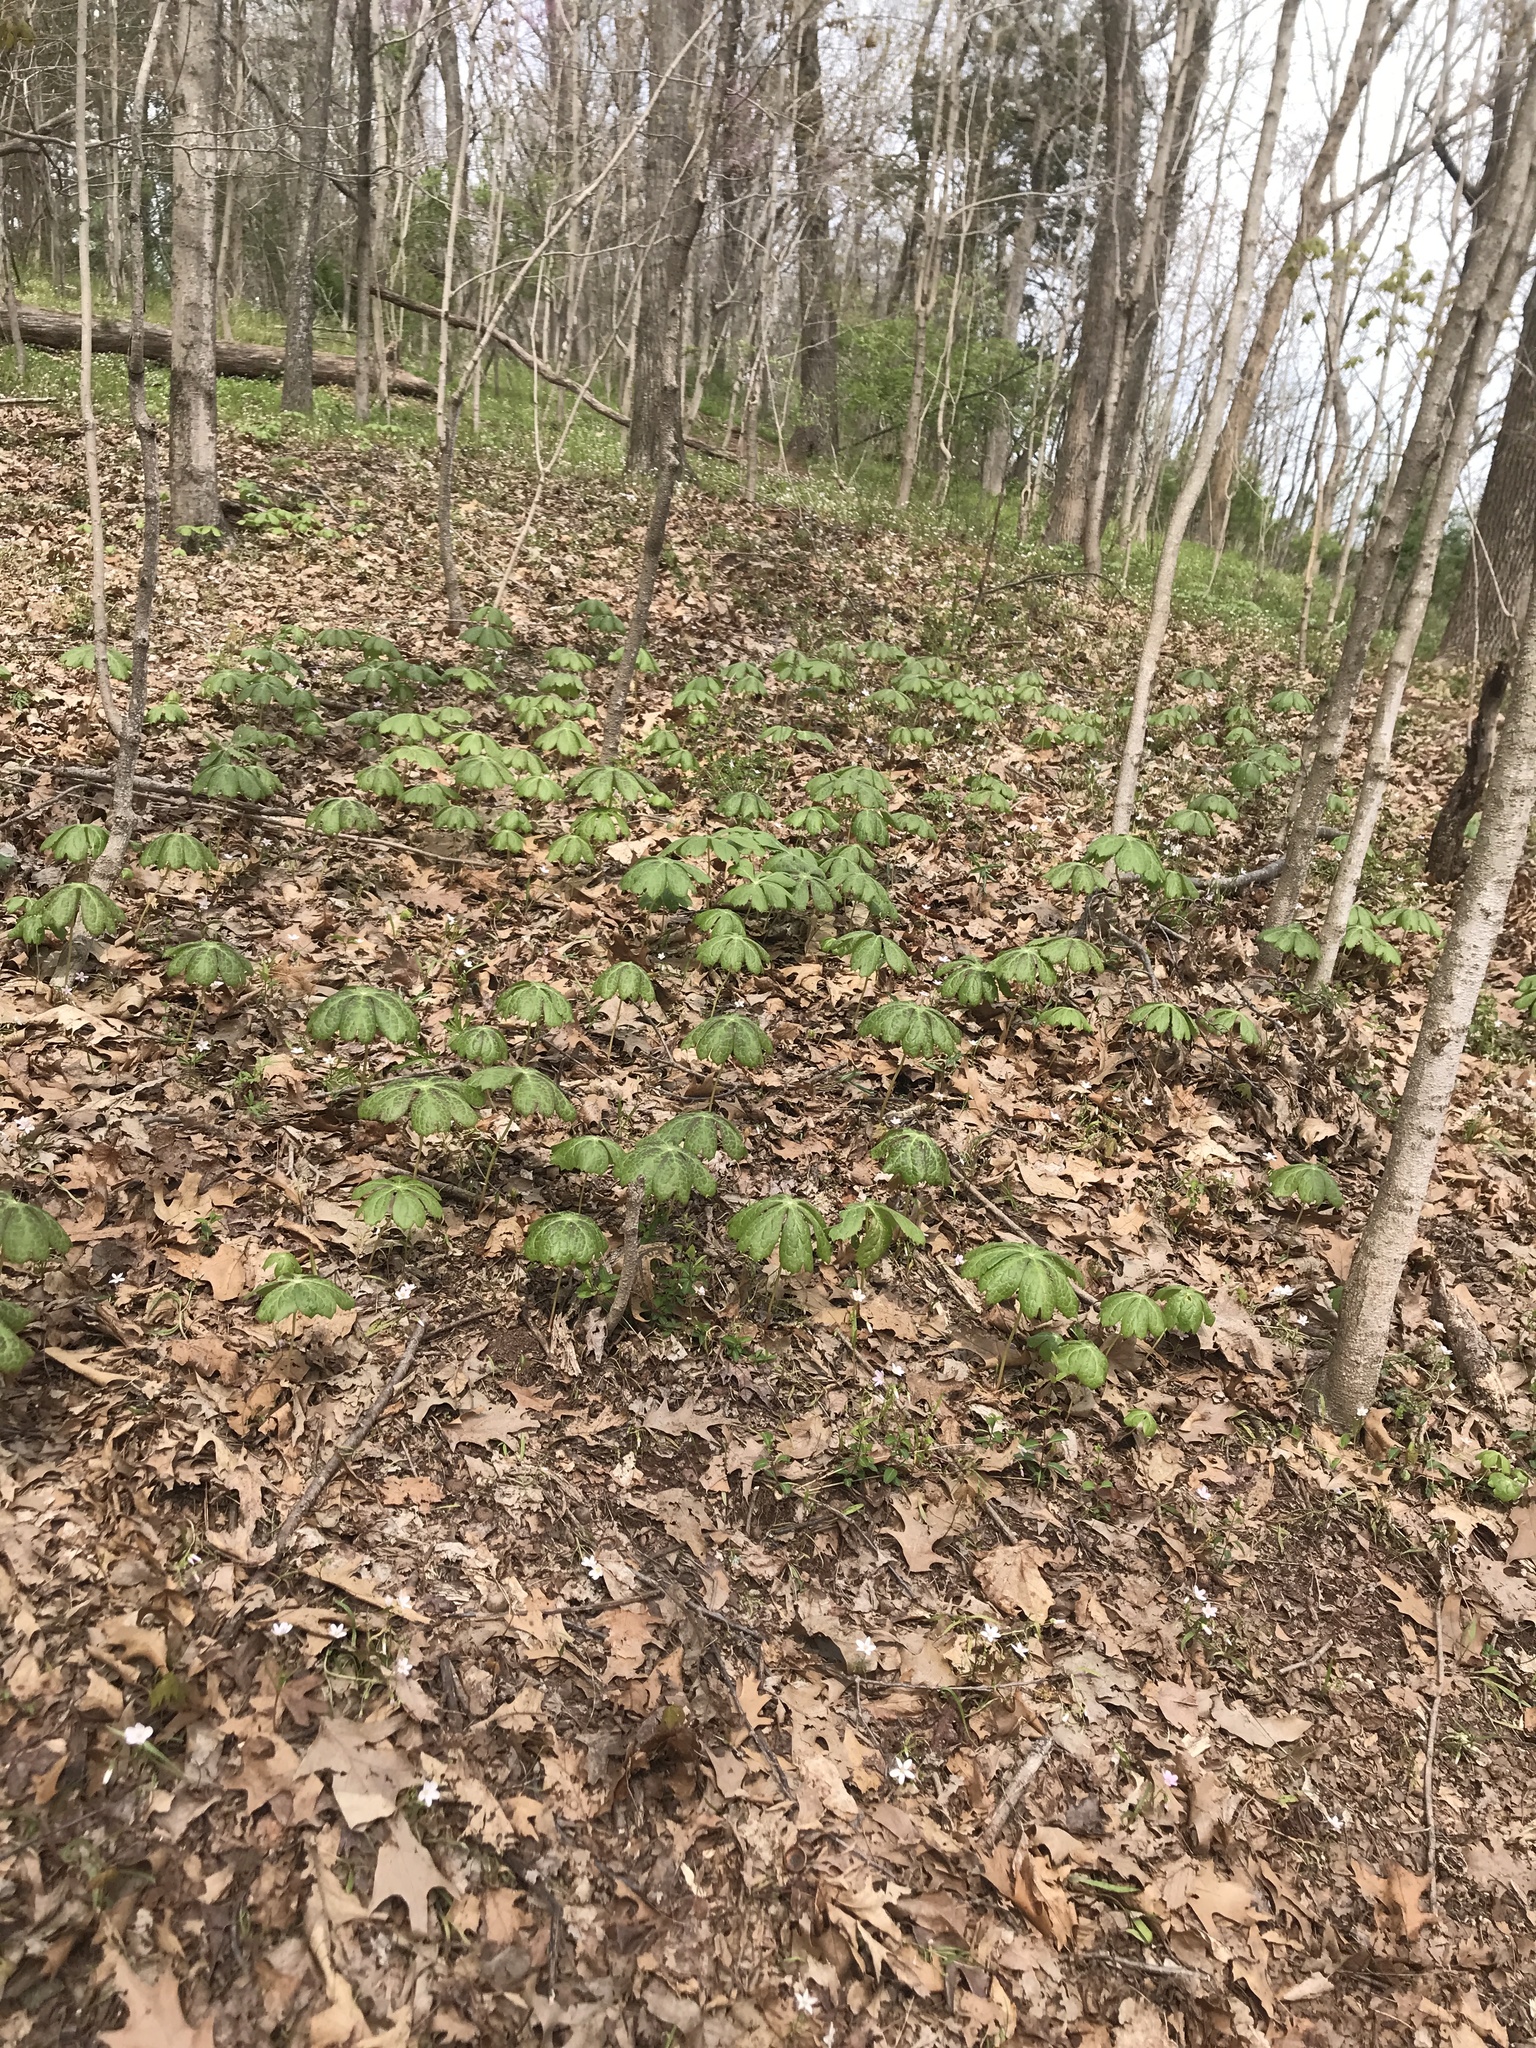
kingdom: Plantae
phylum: Tracheophyta
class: Magnoliopsida
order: Ranunculales
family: Berberidaceae
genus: Podophyllum
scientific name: Podophyllum peltatum
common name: Wild mandrake
